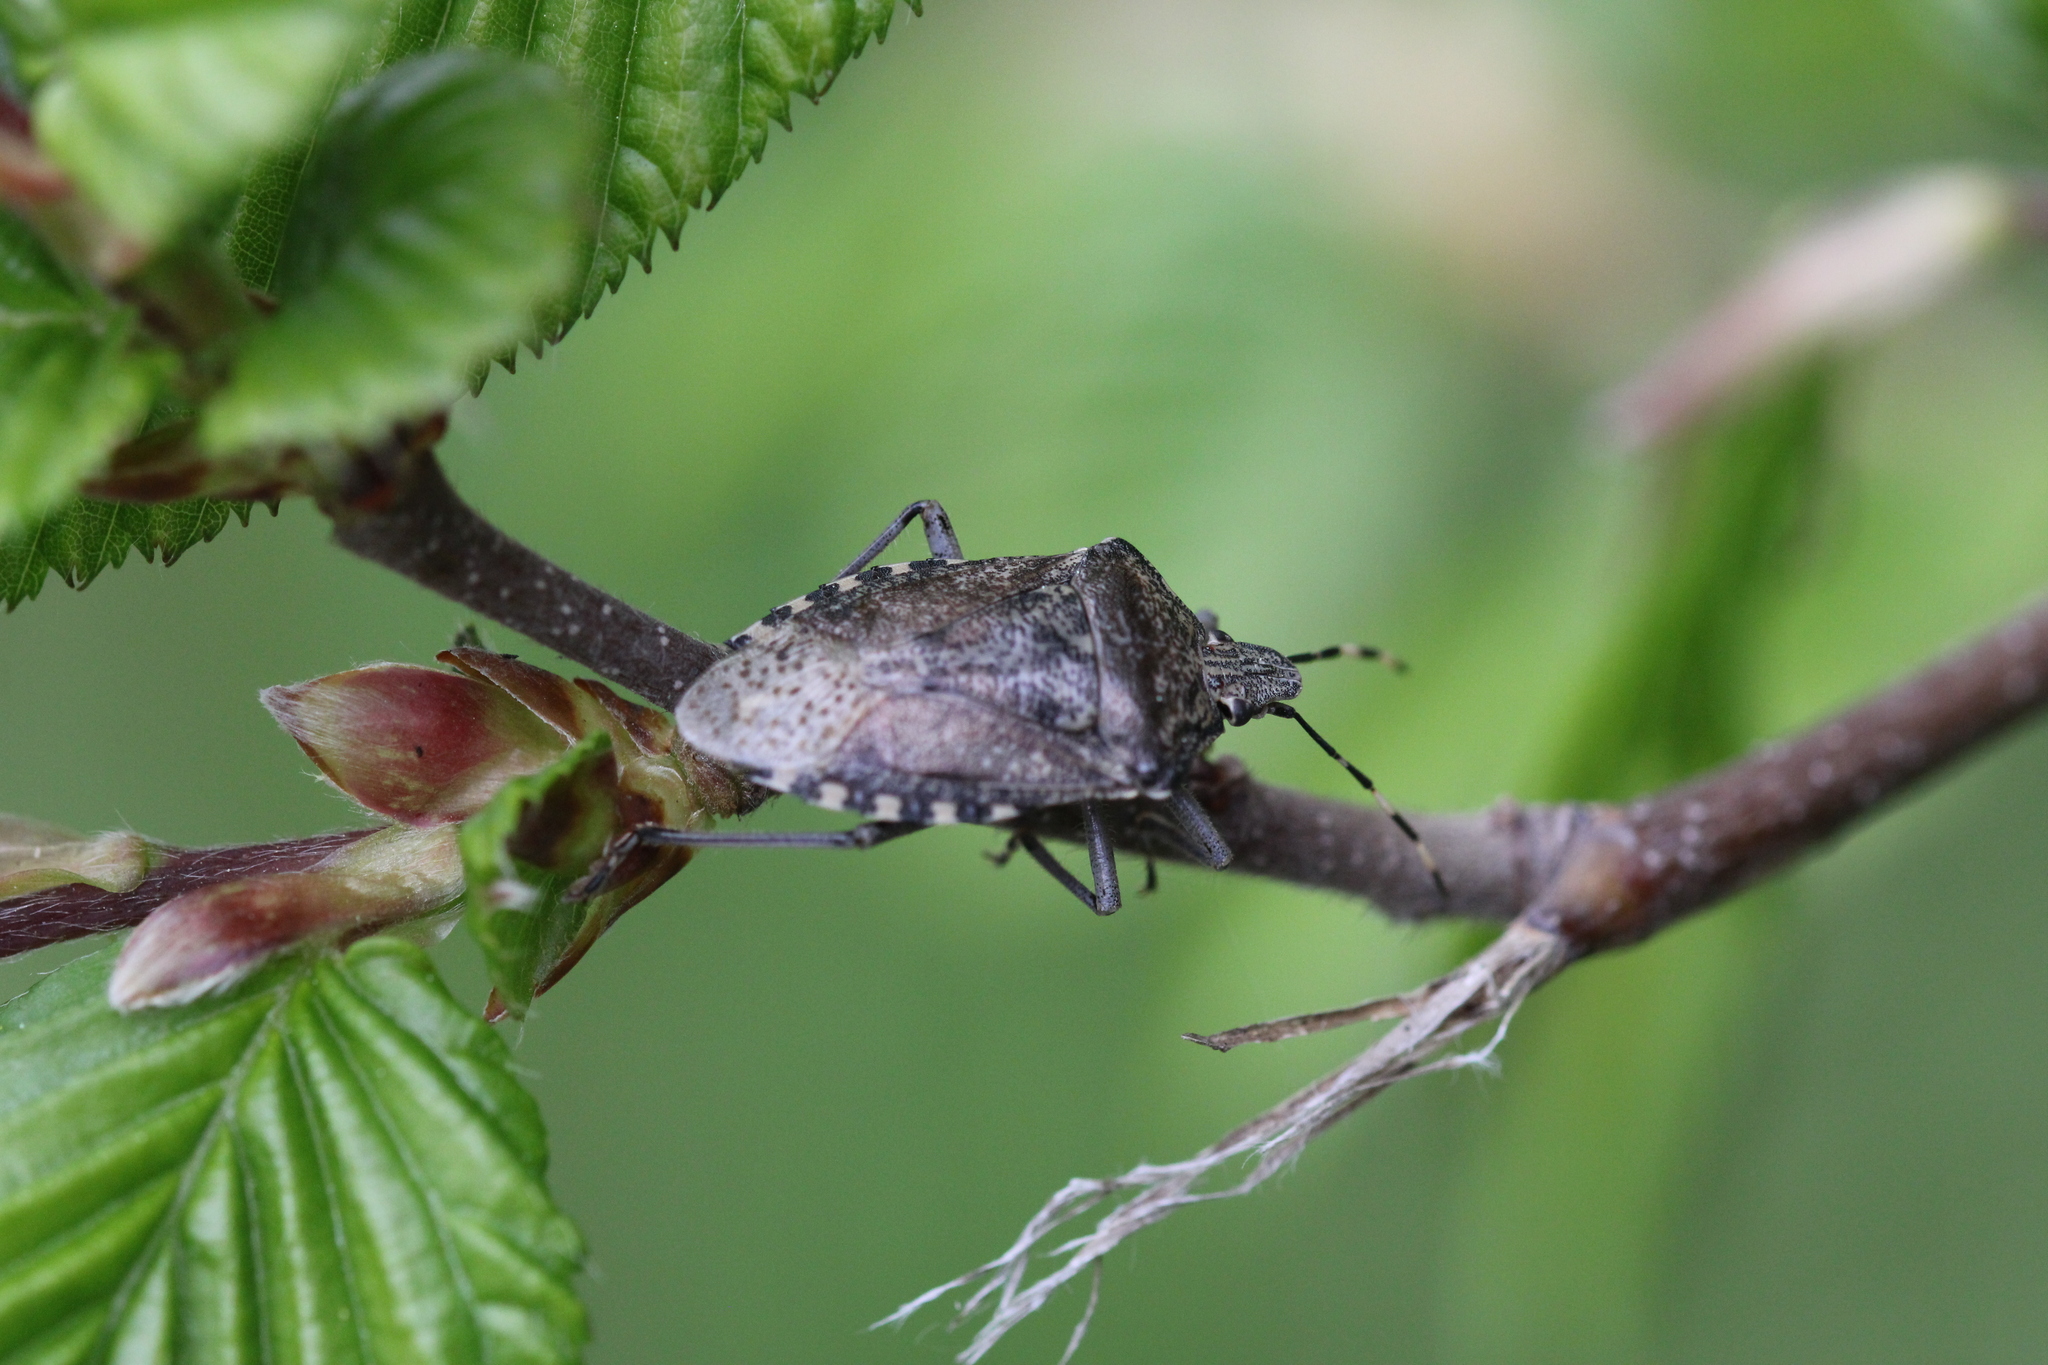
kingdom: Animalia
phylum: Arthropoda
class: Insecta
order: Hemiptera
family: Pentatomidae
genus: Rhaphigaster
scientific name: Rhaphigaster nebulosa
